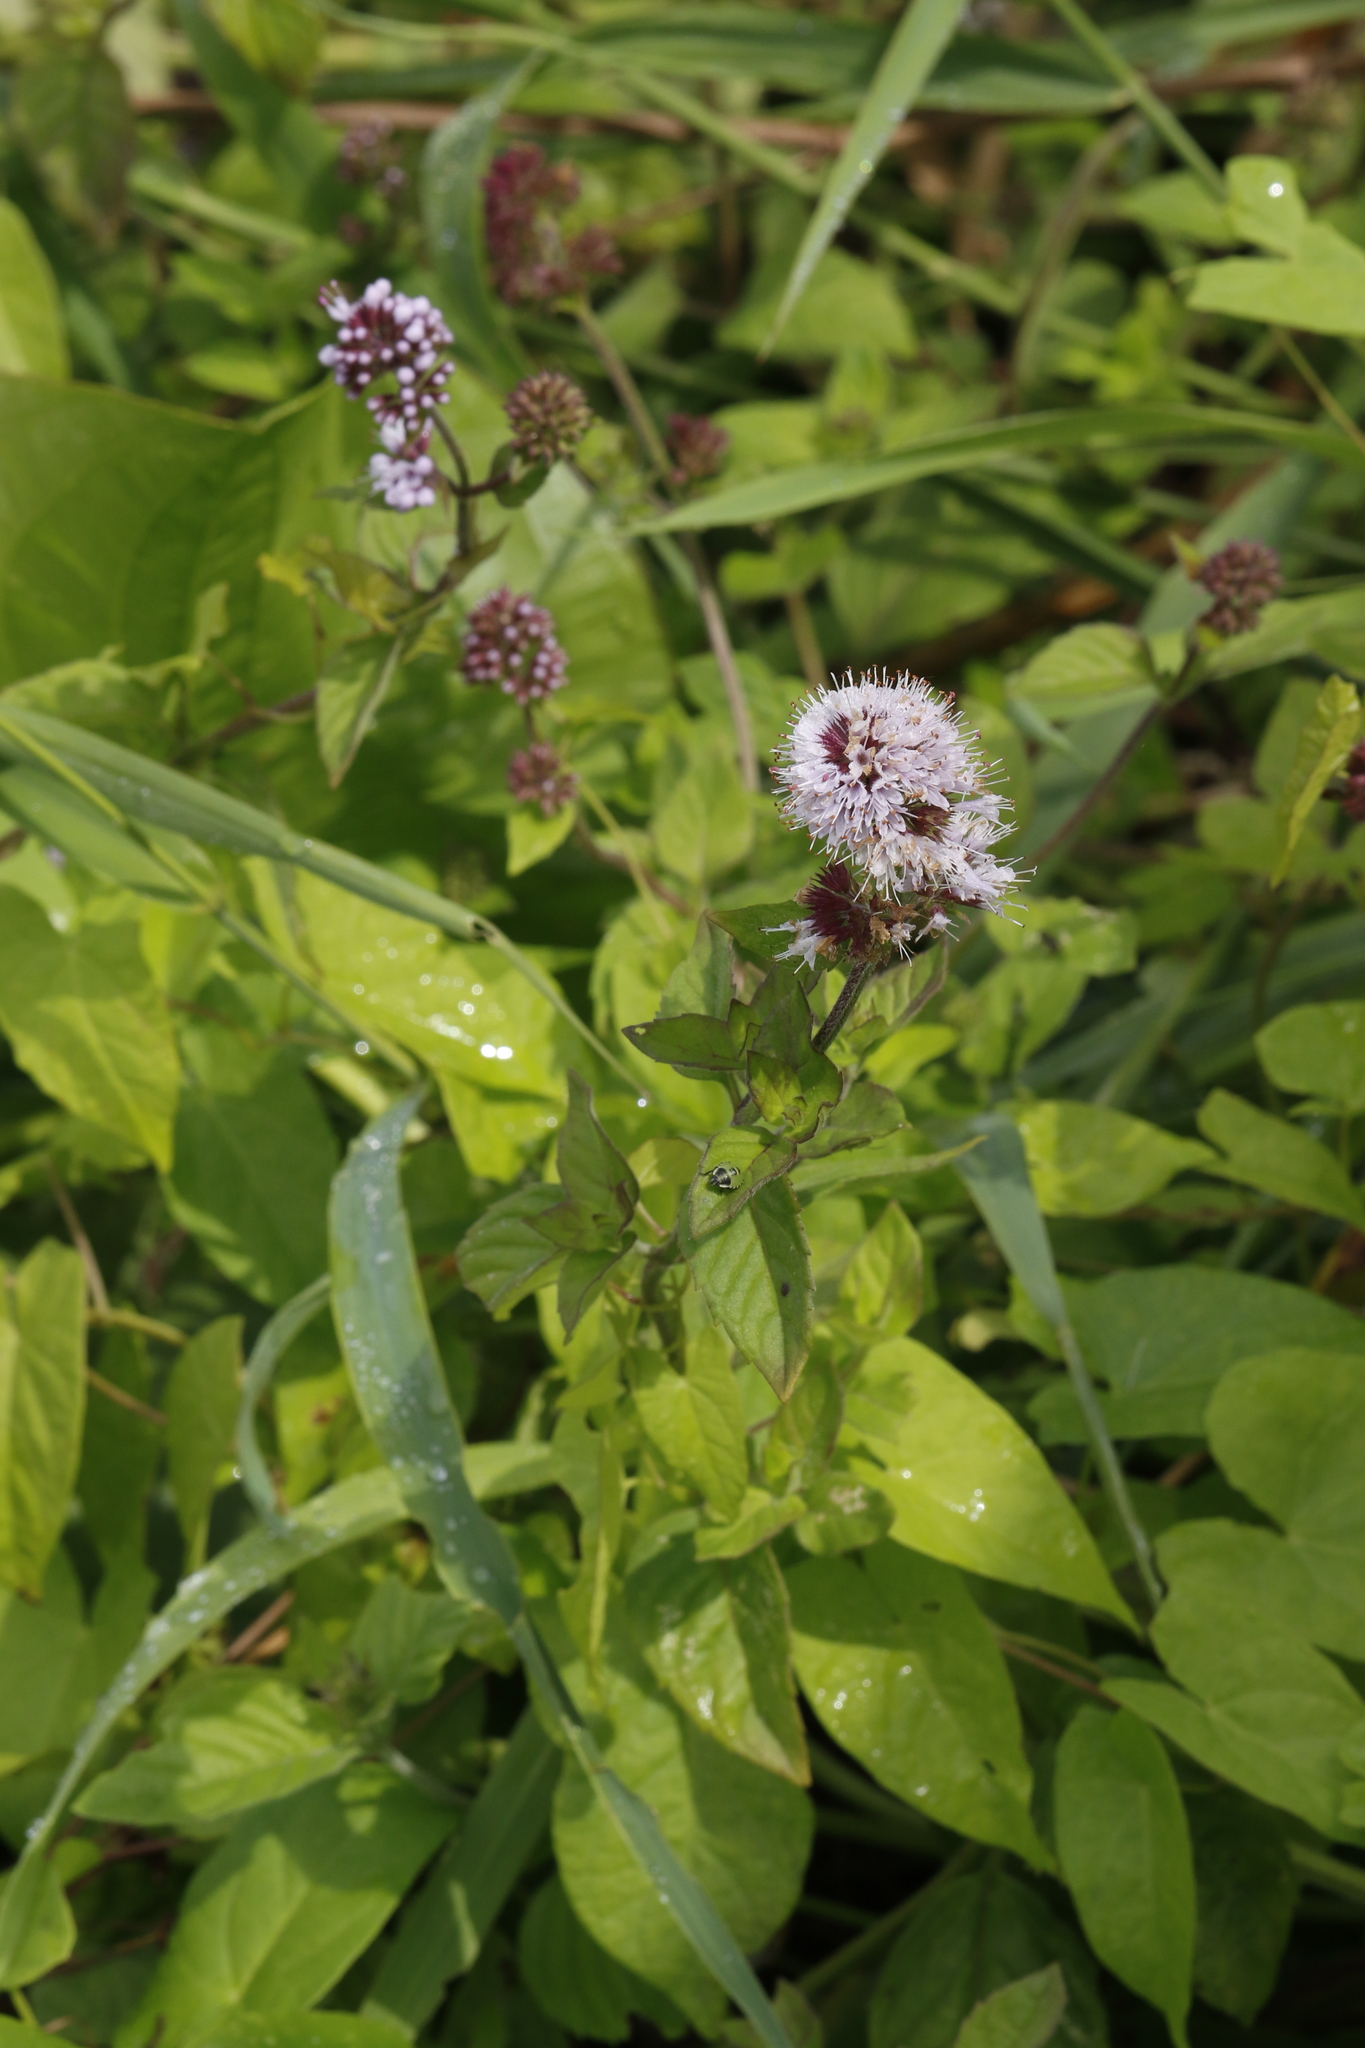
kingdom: Plantae
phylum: Tracheophyta
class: Magnoliopsida
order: Lamiales
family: Lamiaceae
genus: Mentha
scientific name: Mentha aquatica
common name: Water mint
